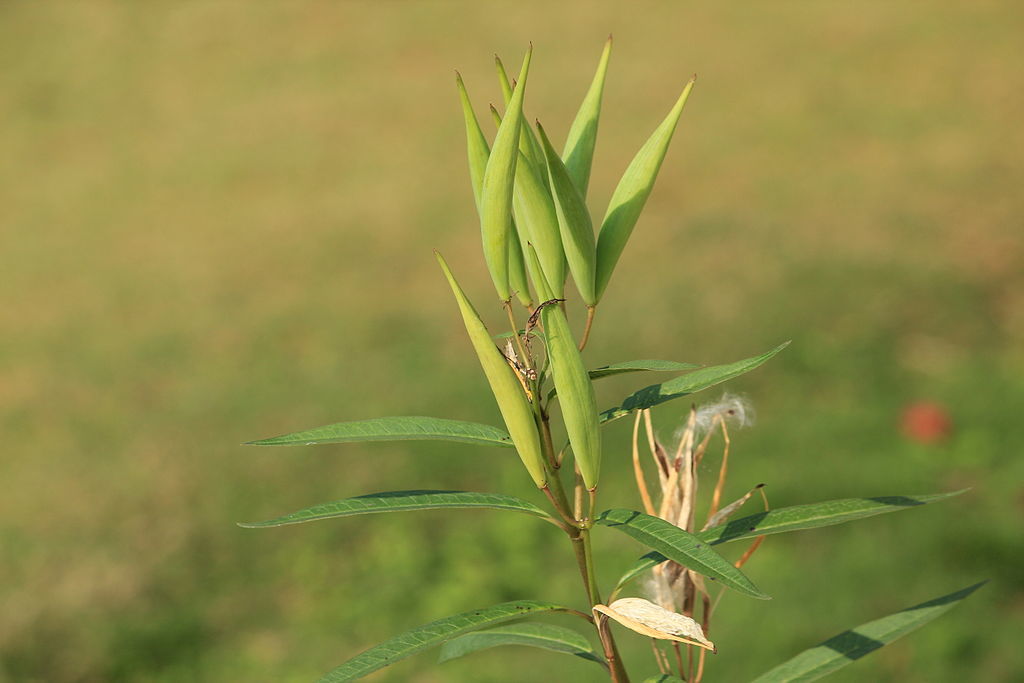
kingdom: Plantae
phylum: Tracheophyta
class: Magnoliopsida
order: Gentianales
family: Apocynaceae
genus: Asclepias
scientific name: Asclepias curassavica
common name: Bloodflower
